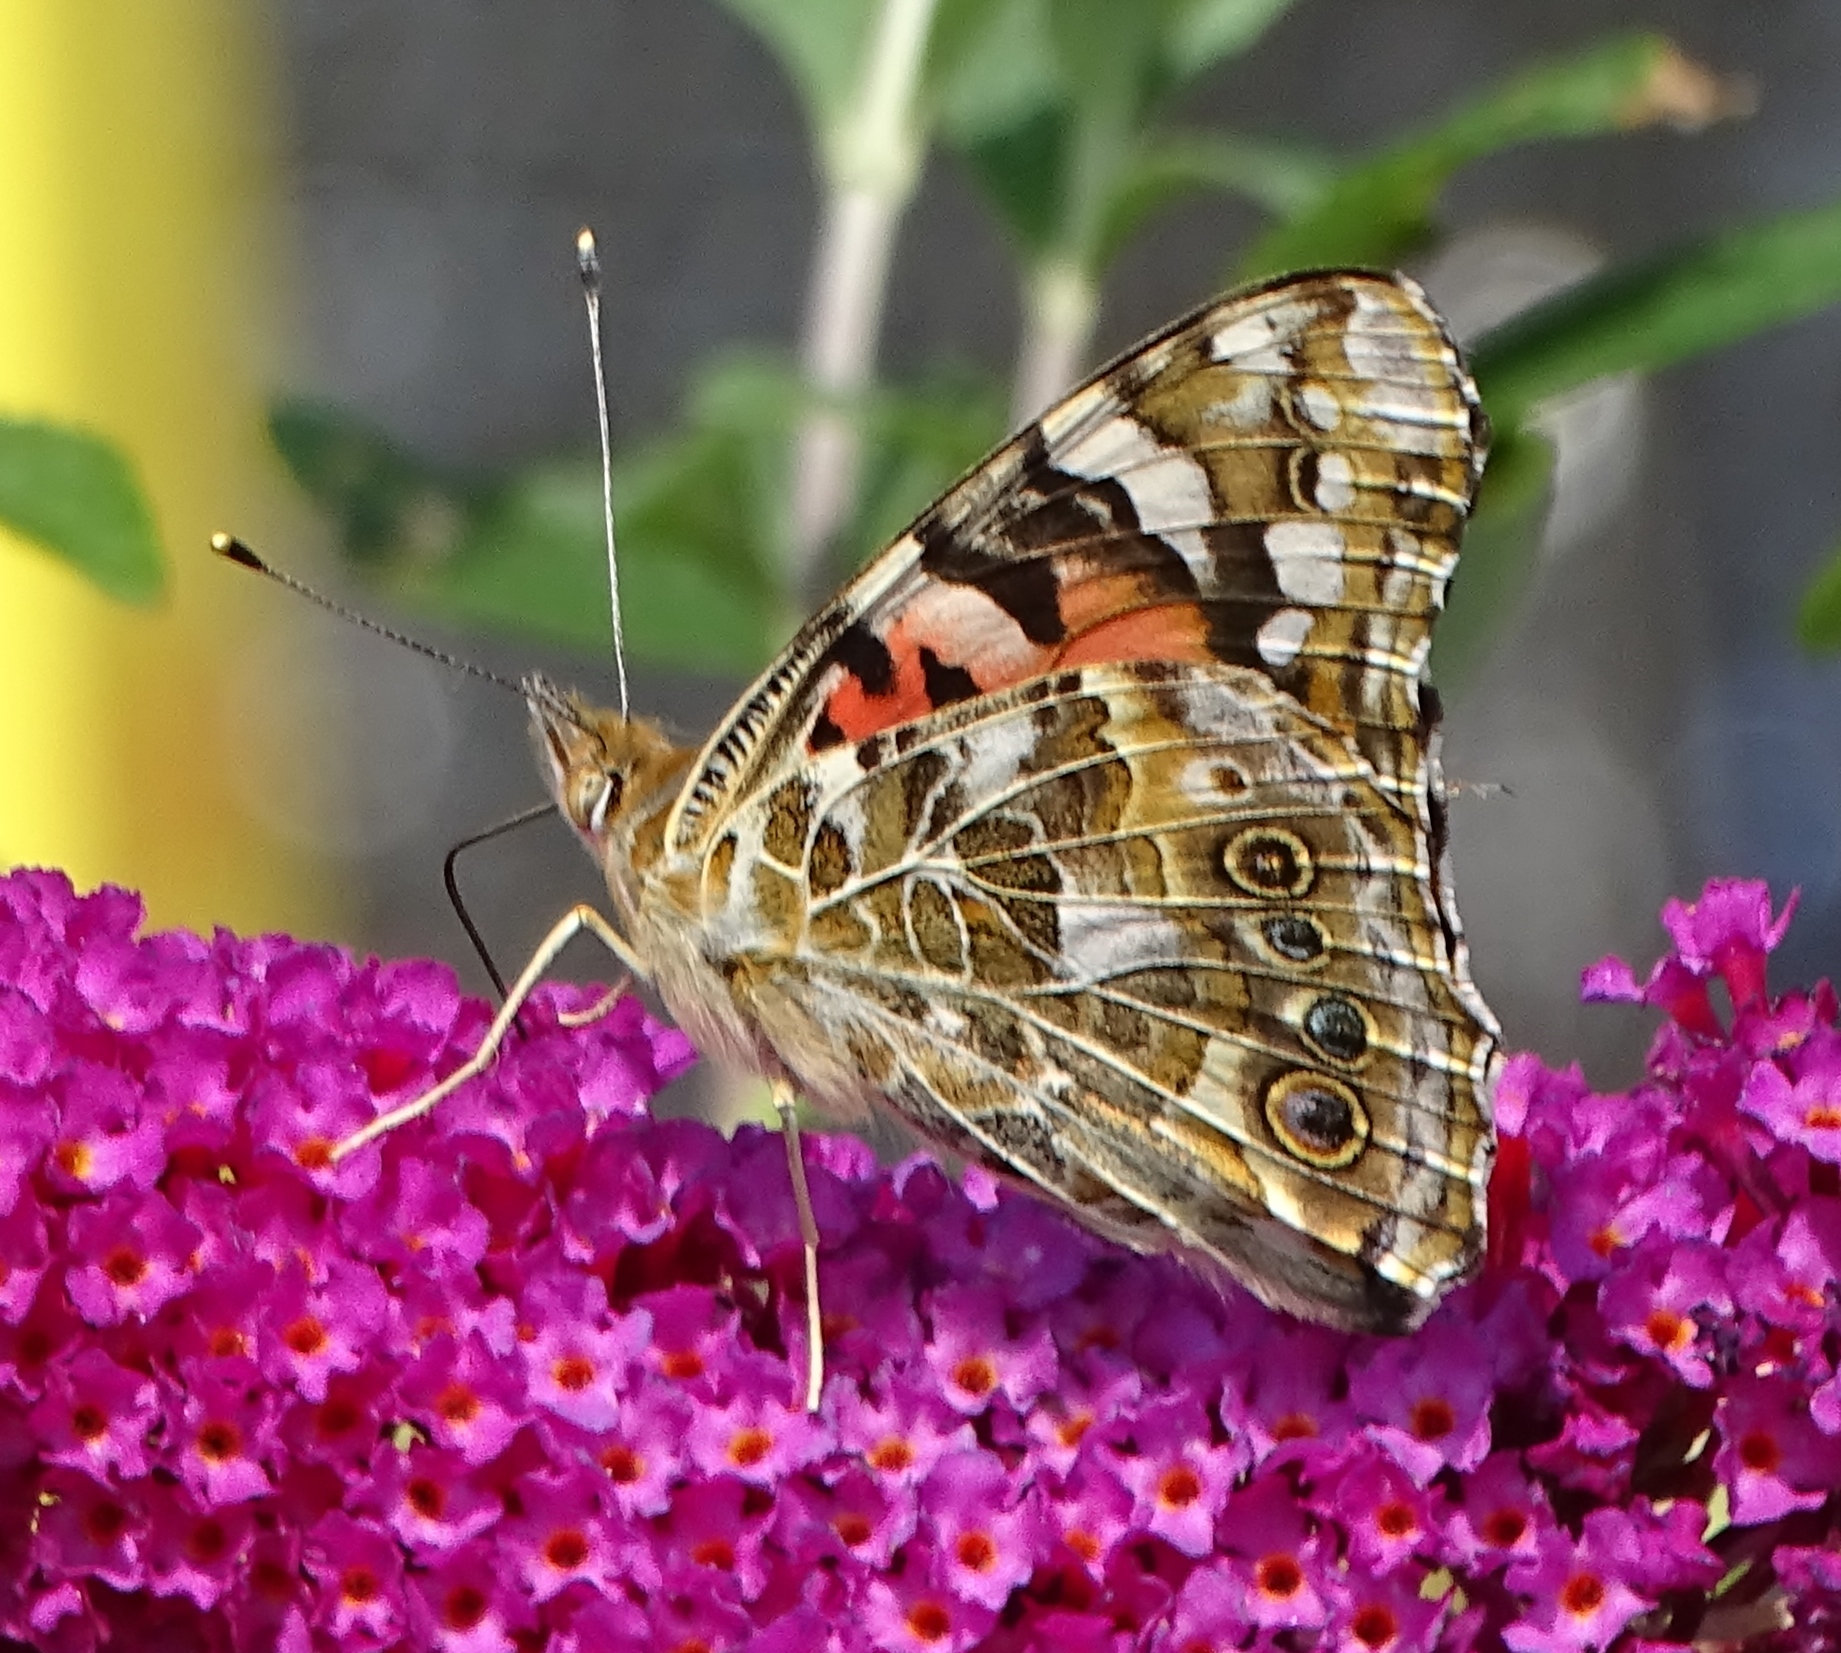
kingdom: Animalia
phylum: Arthropoda
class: Insecta
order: Lepidoptera
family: Nymphalidae
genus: Vanessa
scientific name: Vanessa cardui
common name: Painted lady
